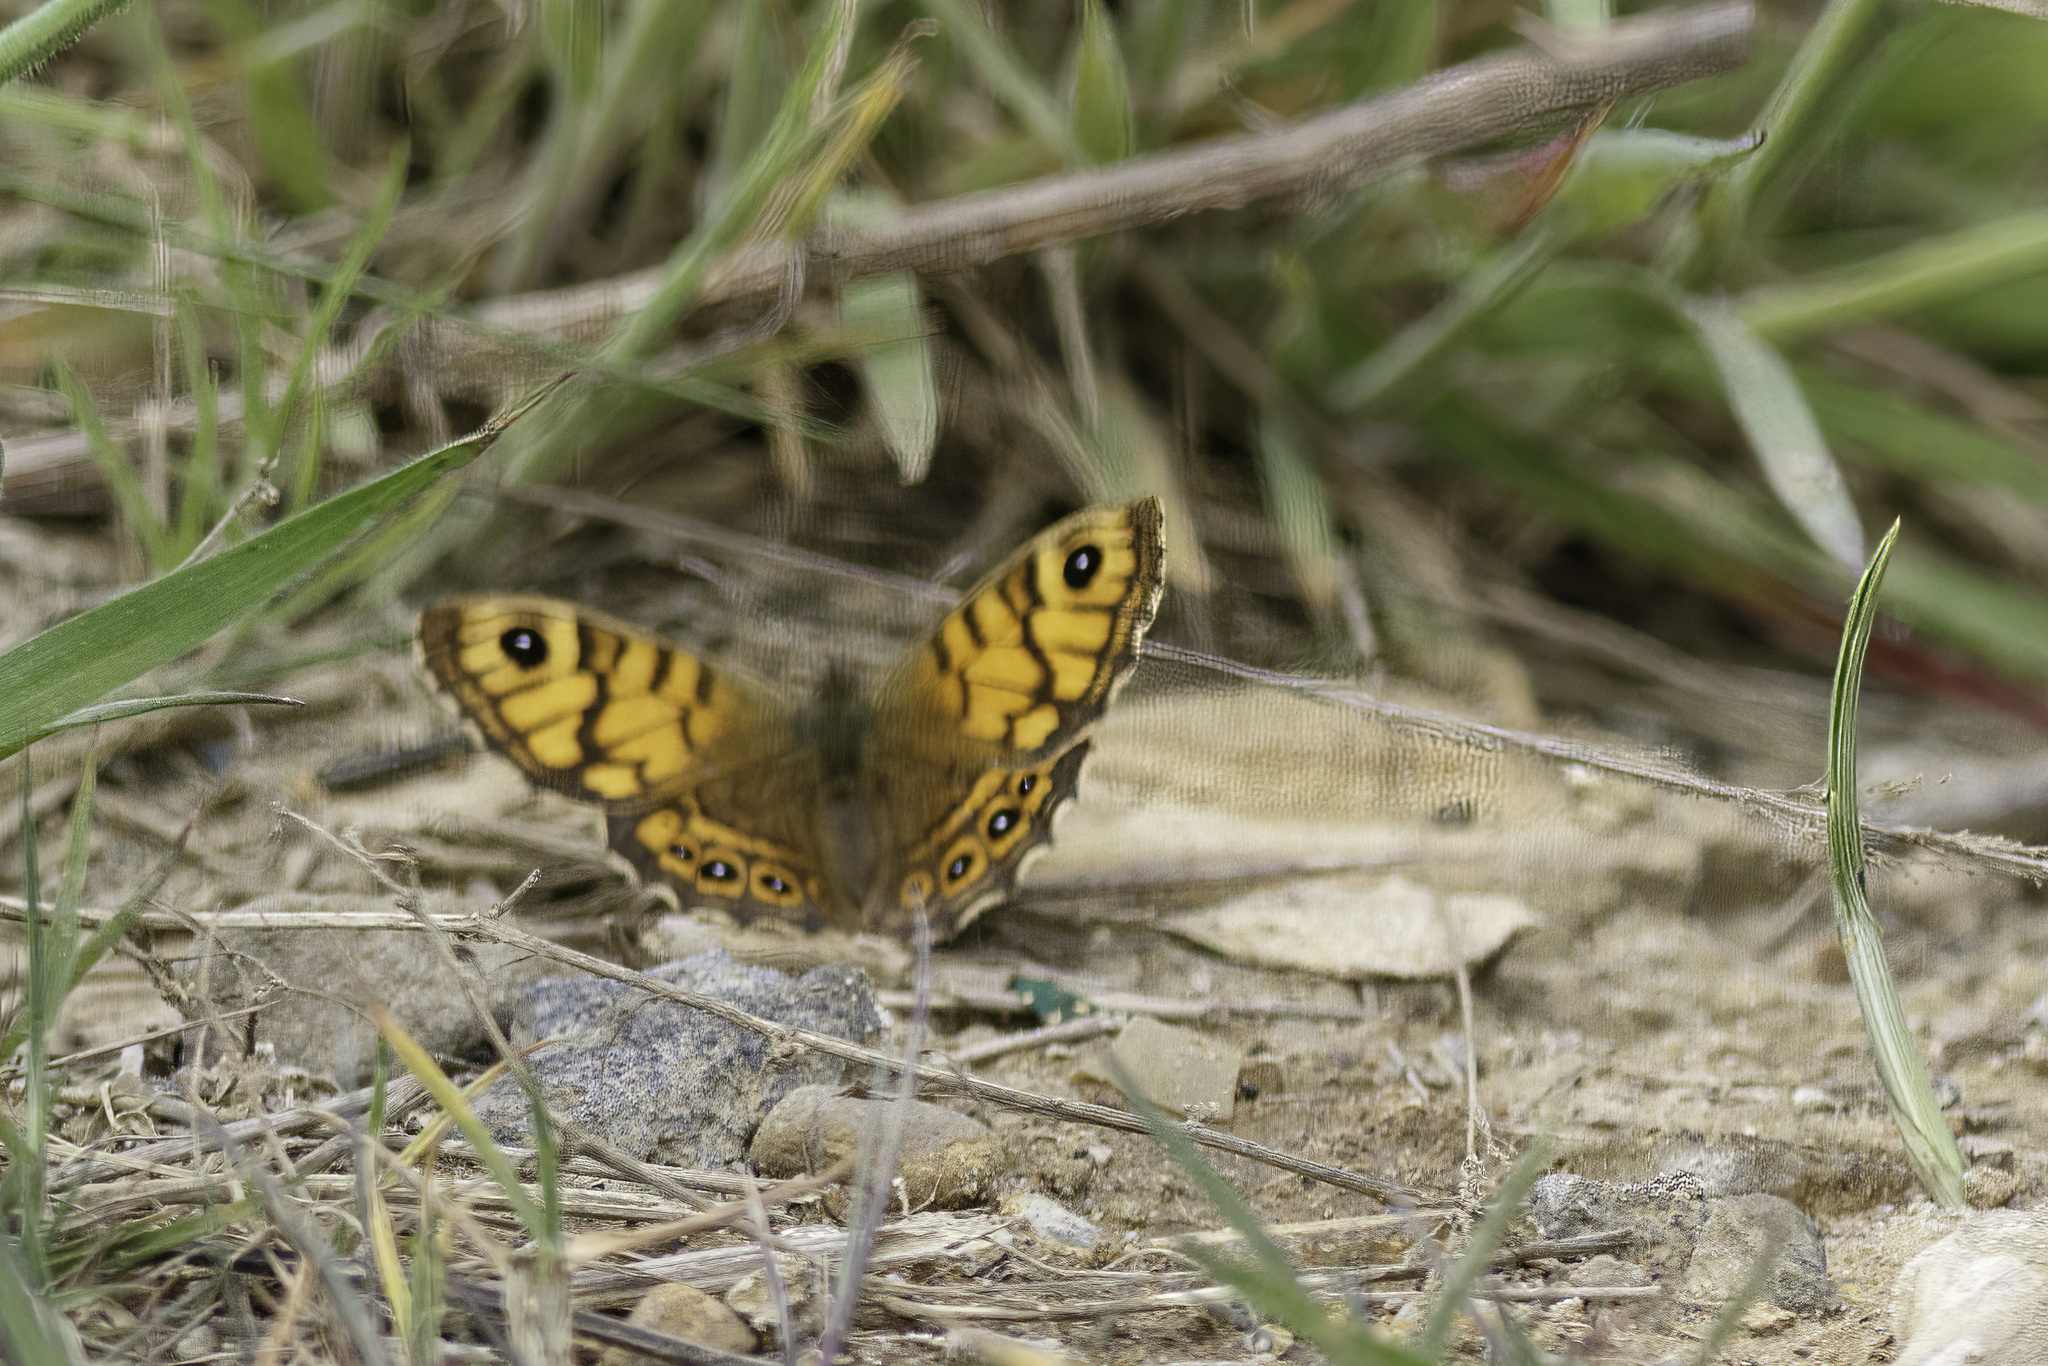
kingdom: Animalia
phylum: Arthropoda
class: Insecta
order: Lepidoptera
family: Nymphalidae
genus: Pararge
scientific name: Pararge Lasiommata megera
